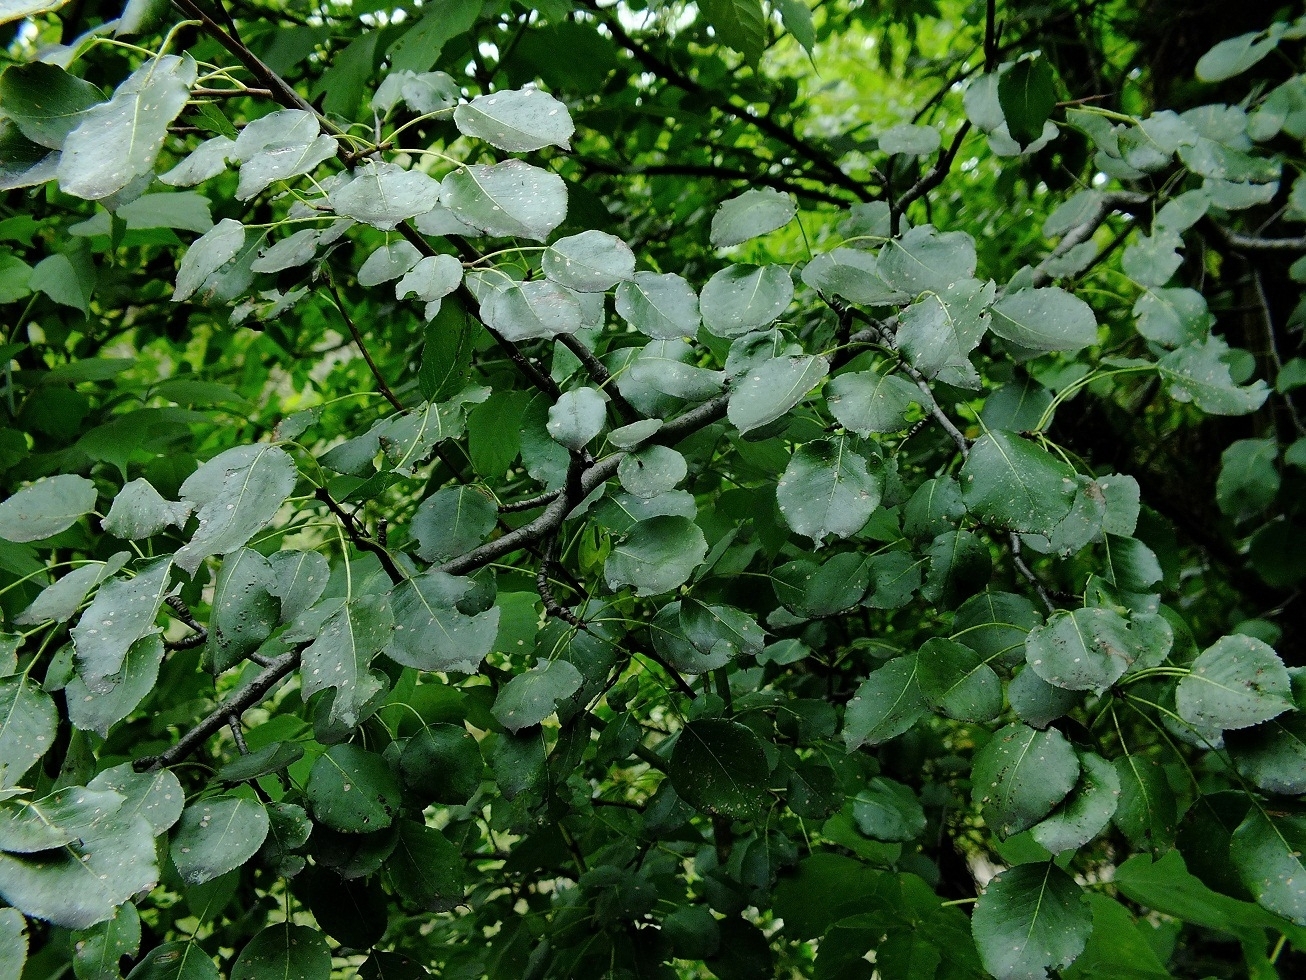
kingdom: Plantae
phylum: Tracheophyta
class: Magnoliopsida
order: Rosales
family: Rosaceae
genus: Pyrus
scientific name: Pyrus communis
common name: Pear
